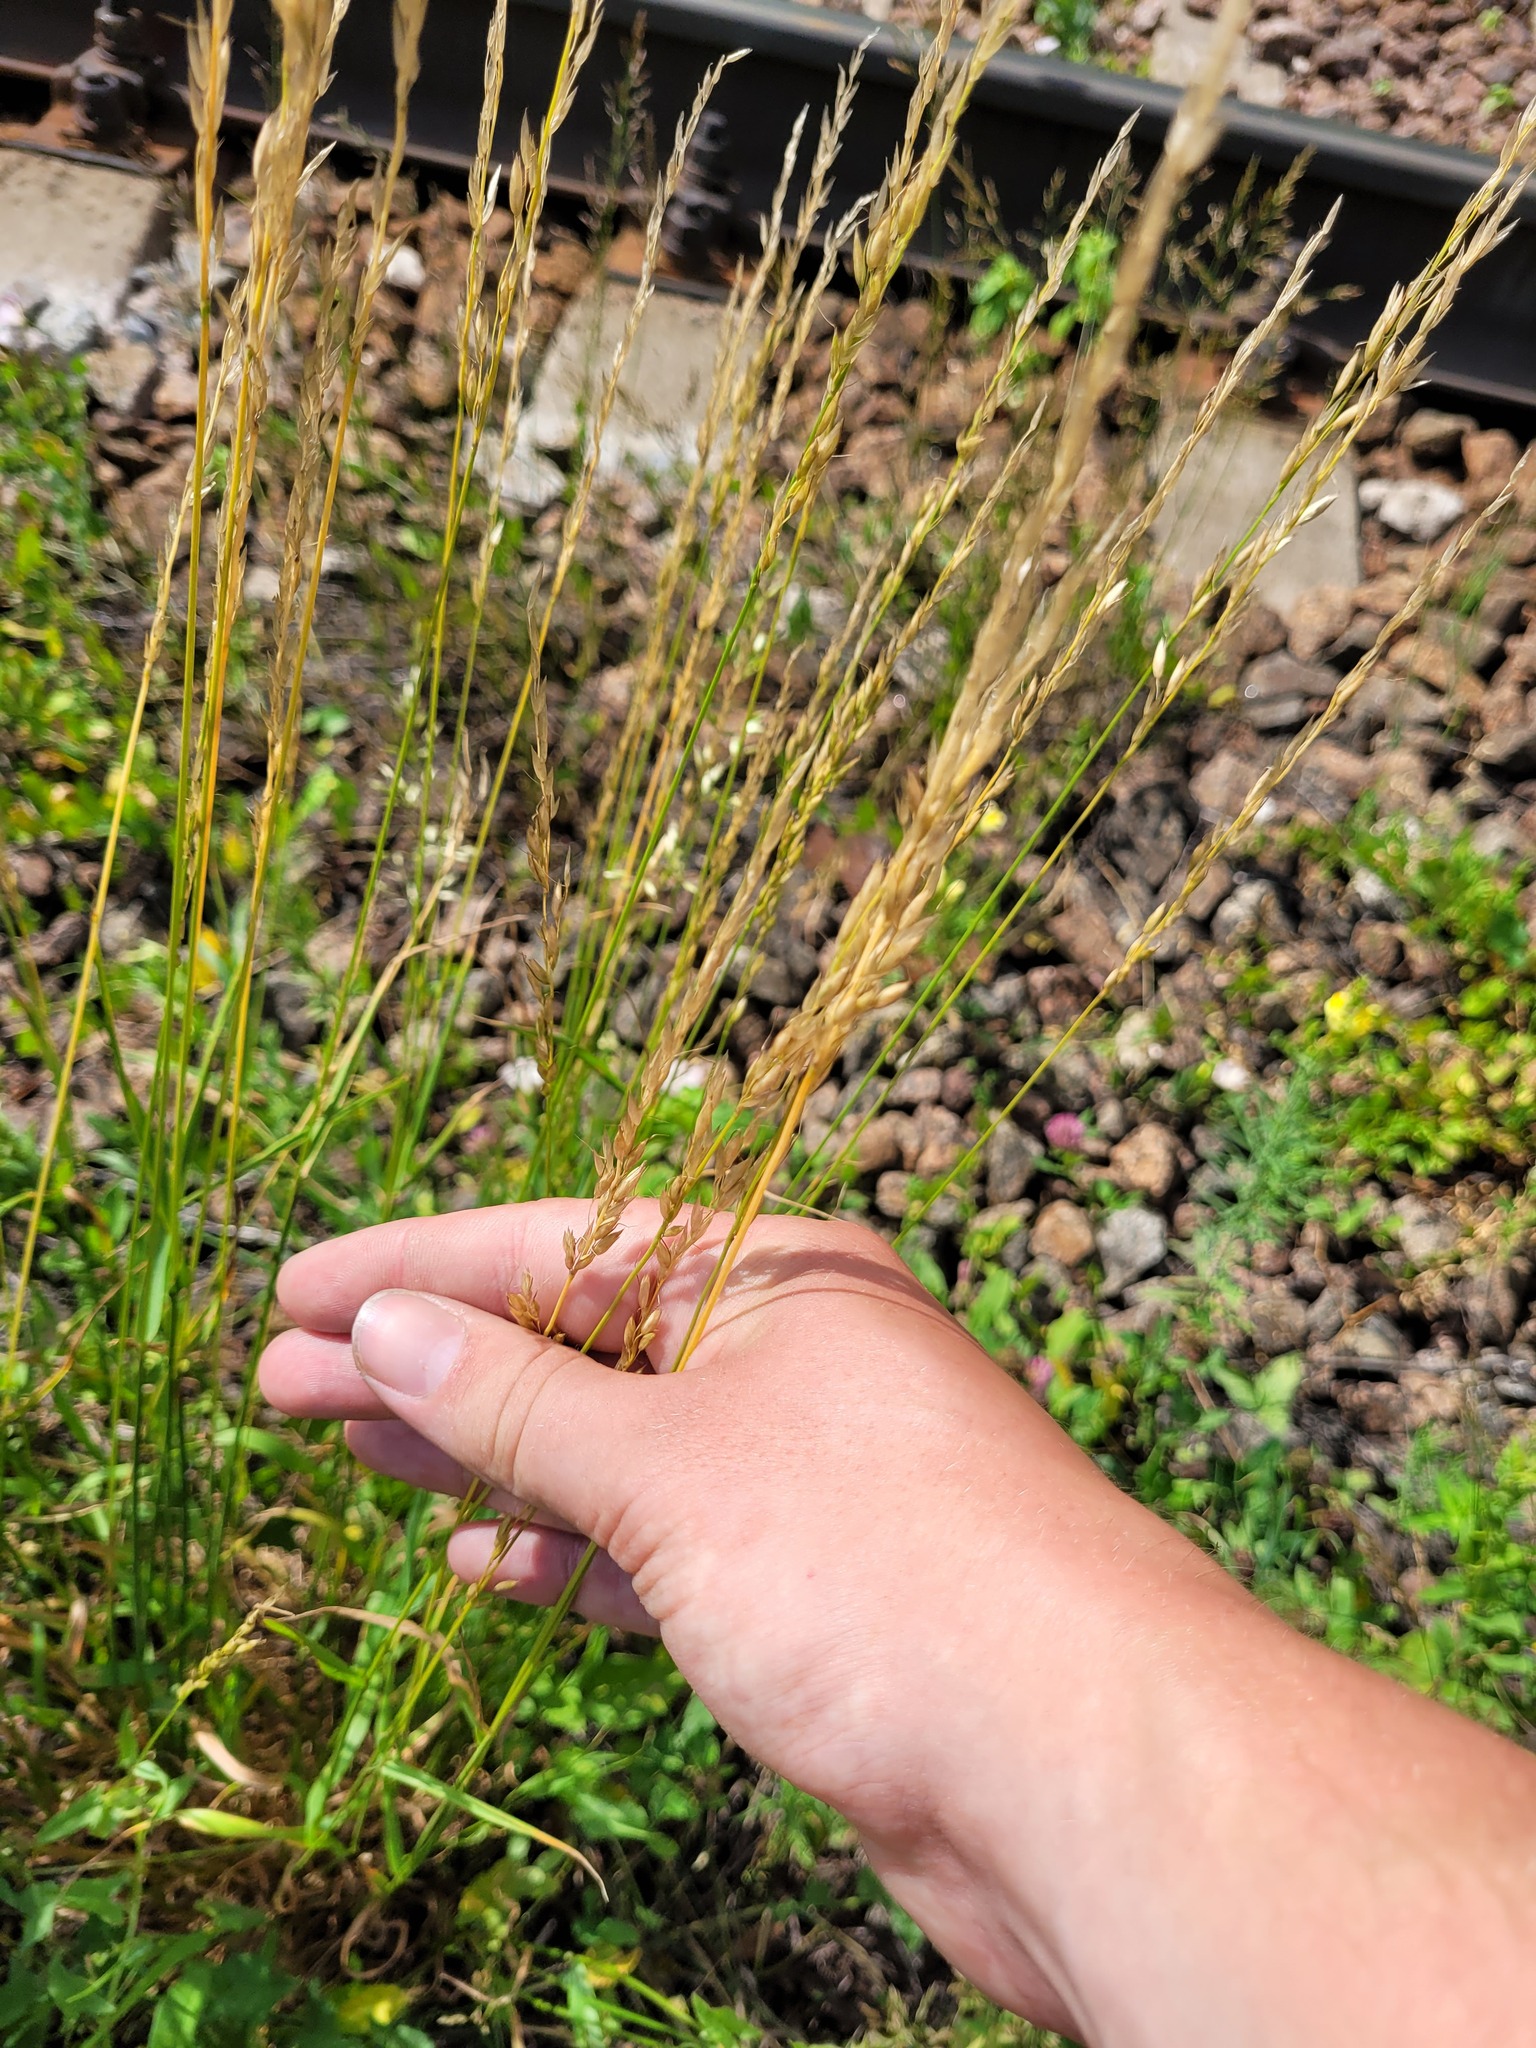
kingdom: Plantae
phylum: Tracheophyta
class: Liliopsida
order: Poales
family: Poaceae
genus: Arrhenatherum
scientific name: Arrhenatherum elatius
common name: Tall oatgrass
